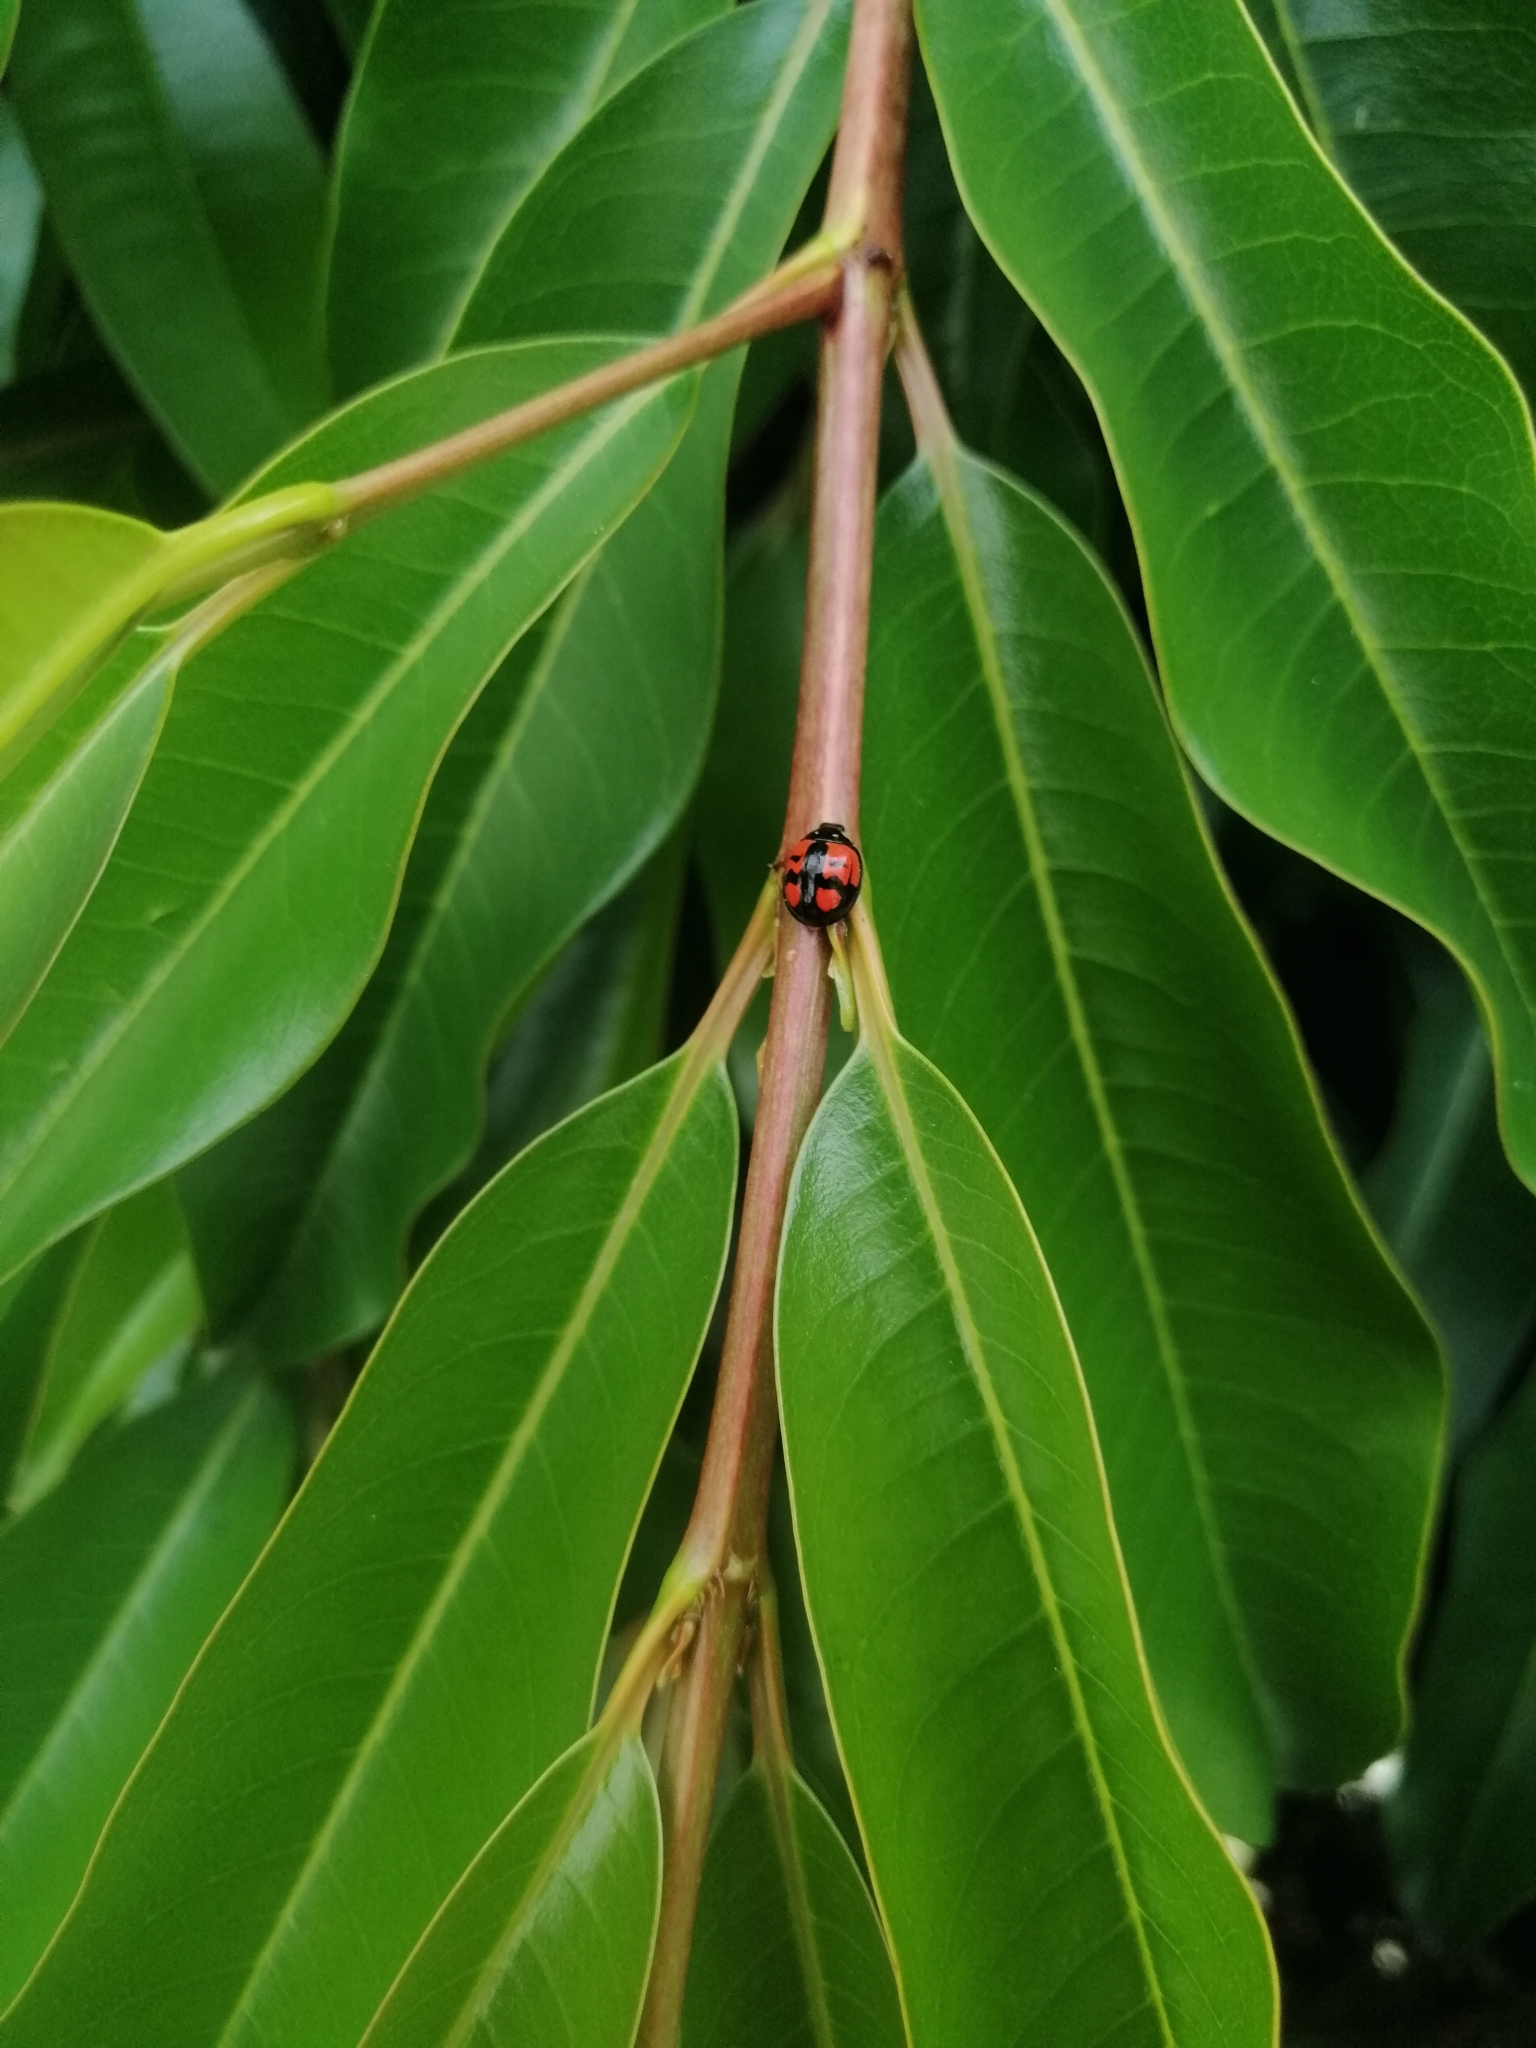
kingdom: Animalia
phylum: Arthropoda
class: Insecta
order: Coleoptera
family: Coccinellidae
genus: Cheilomenes
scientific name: Cheilomenes sexmaculata
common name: Ladybird beetle
